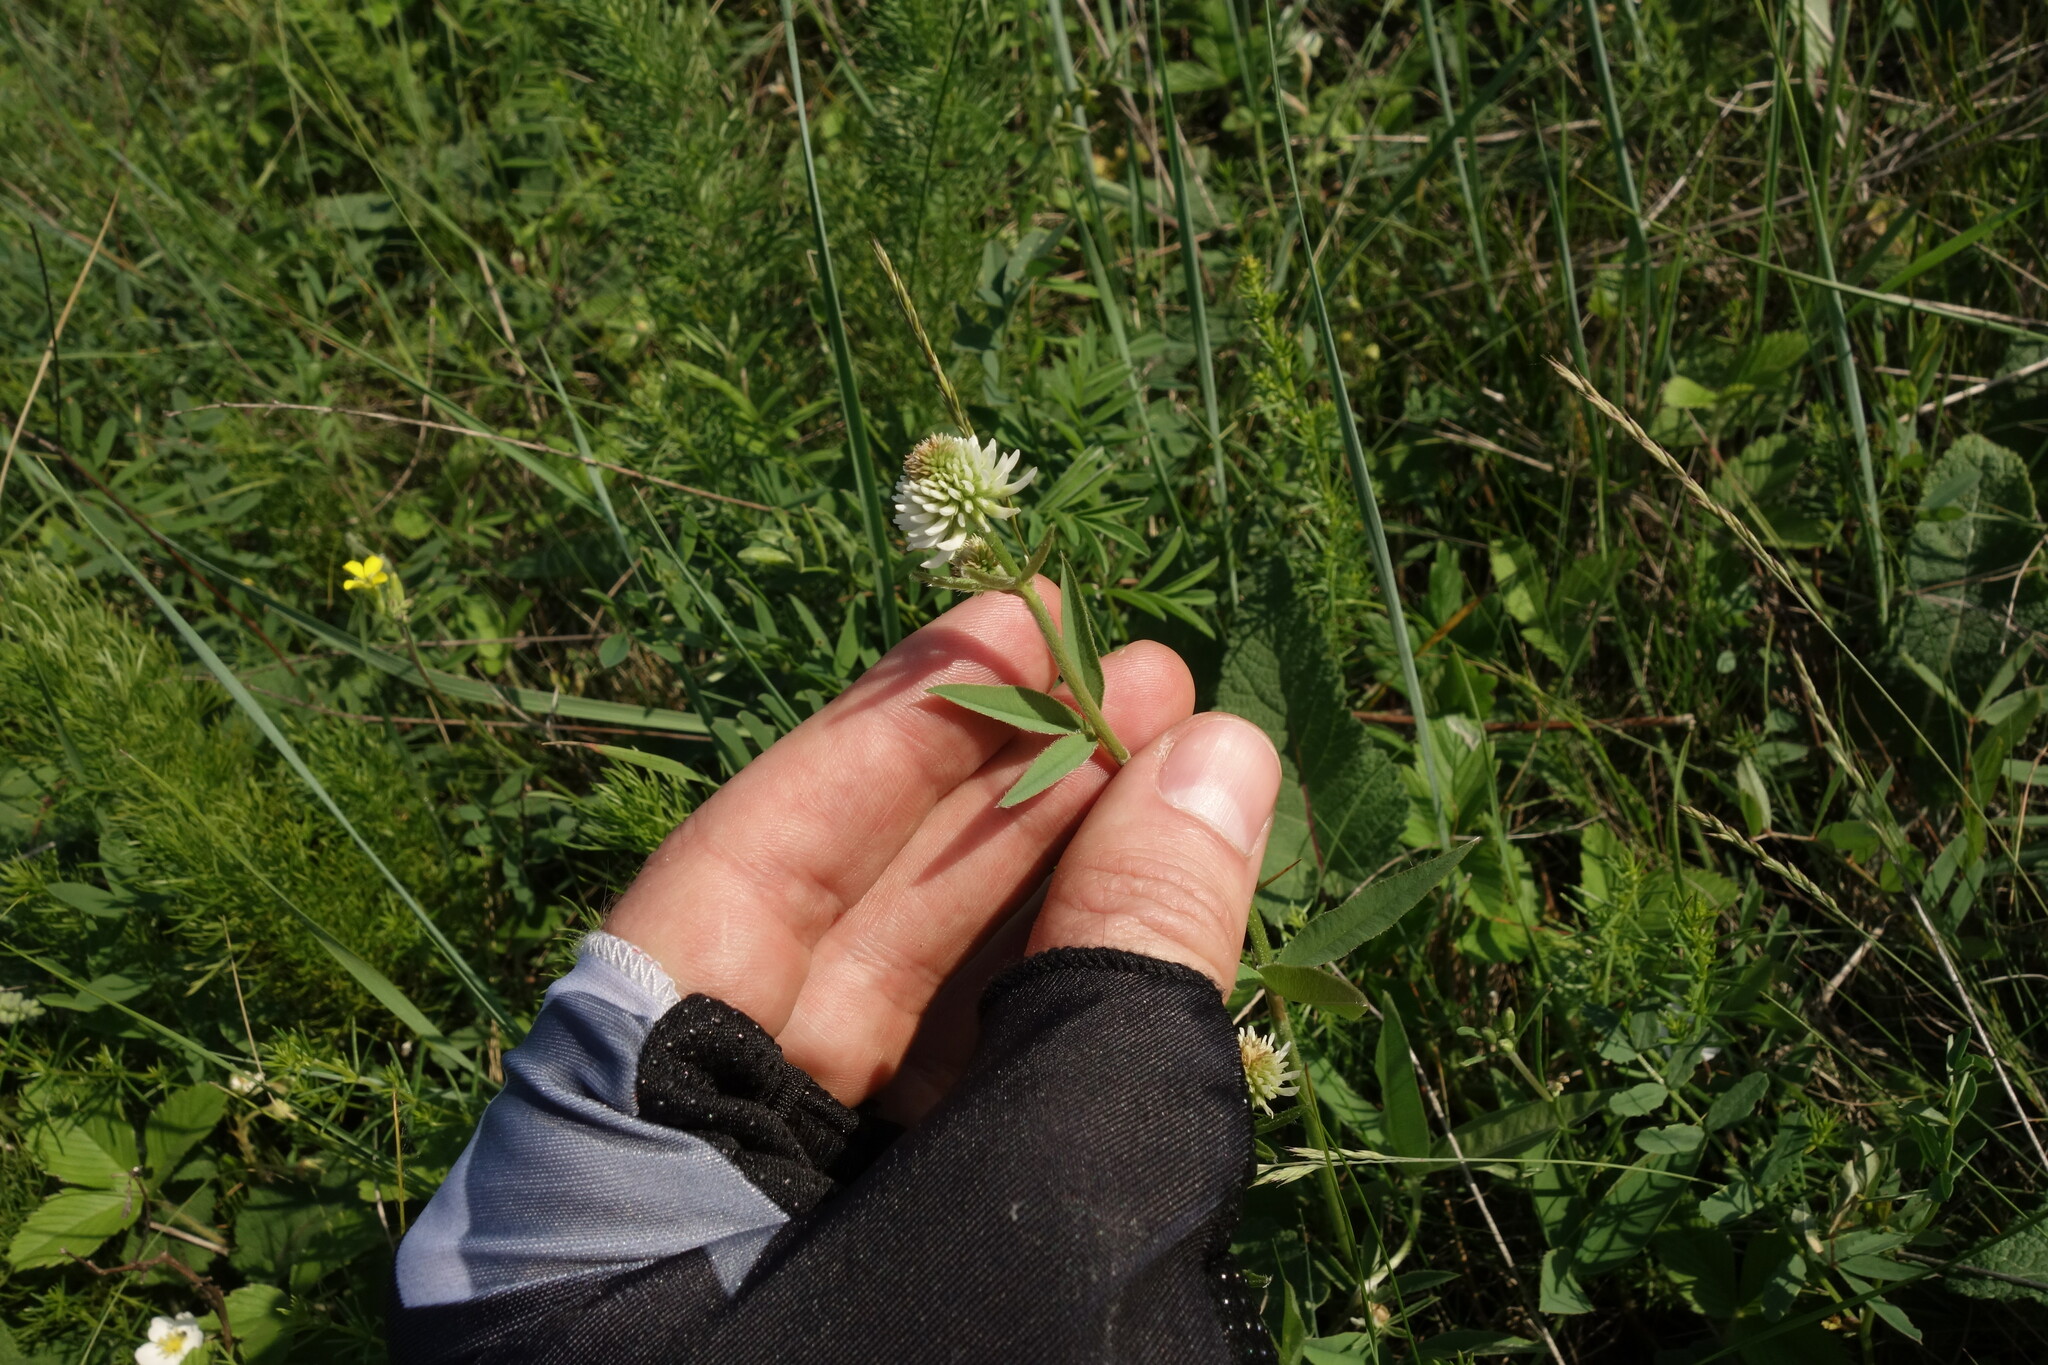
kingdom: Plantae
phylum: Tracheophyta
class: Magnoliopsida
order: Fabales
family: Fabaceae
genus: Trifolium
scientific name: Trifolium montanum
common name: Mountain clover
